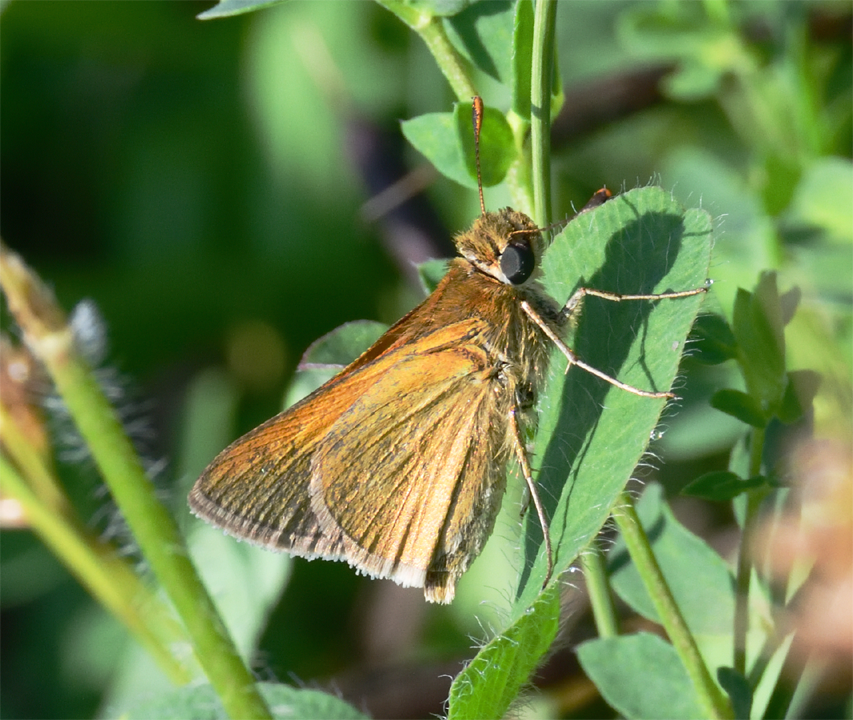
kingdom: Animalia
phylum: Arthropoda
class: Insecta
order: Lepidoptera
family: Hesperiidae
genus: Polites
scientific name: Polites themistocles
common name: Tawny-edged skipper
